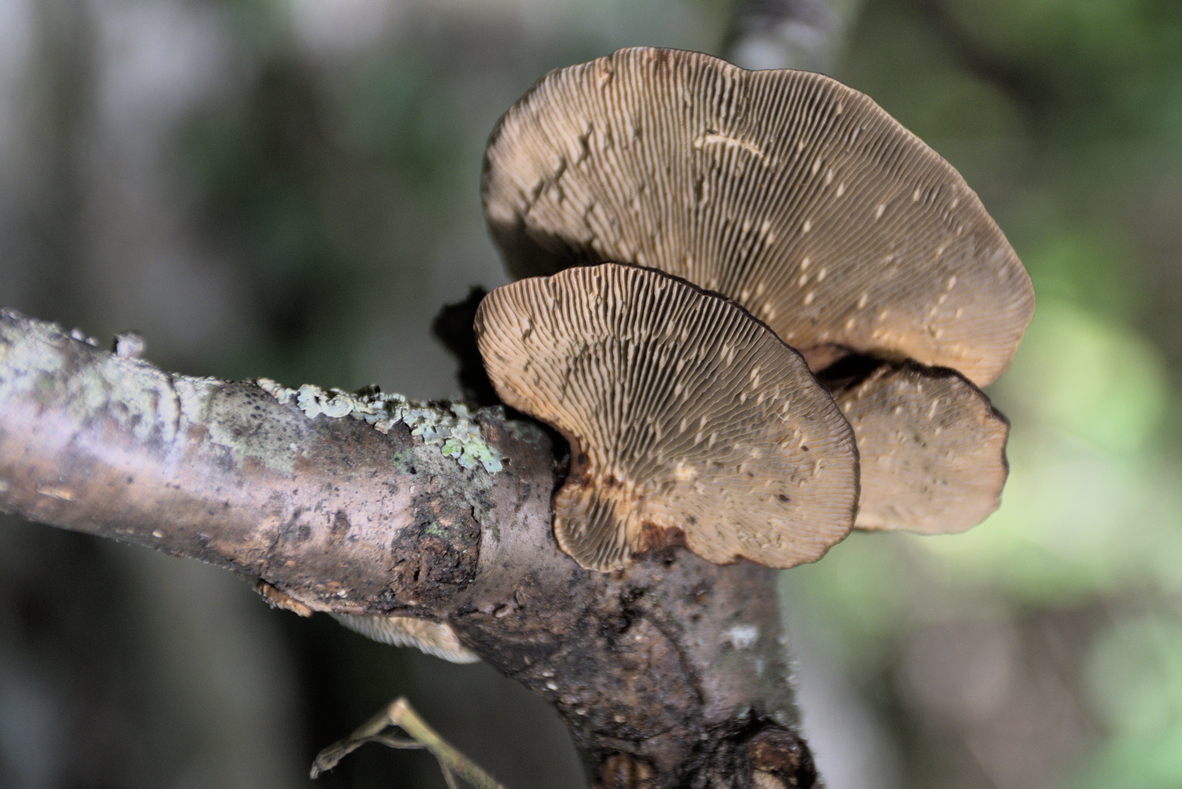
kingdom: Fungi
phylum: Basidiomycota
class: Agaricomycetes
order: Polyporales
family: Polyporaceae
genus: Daedaleopsis
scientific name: Daedaleopsis tricolor
